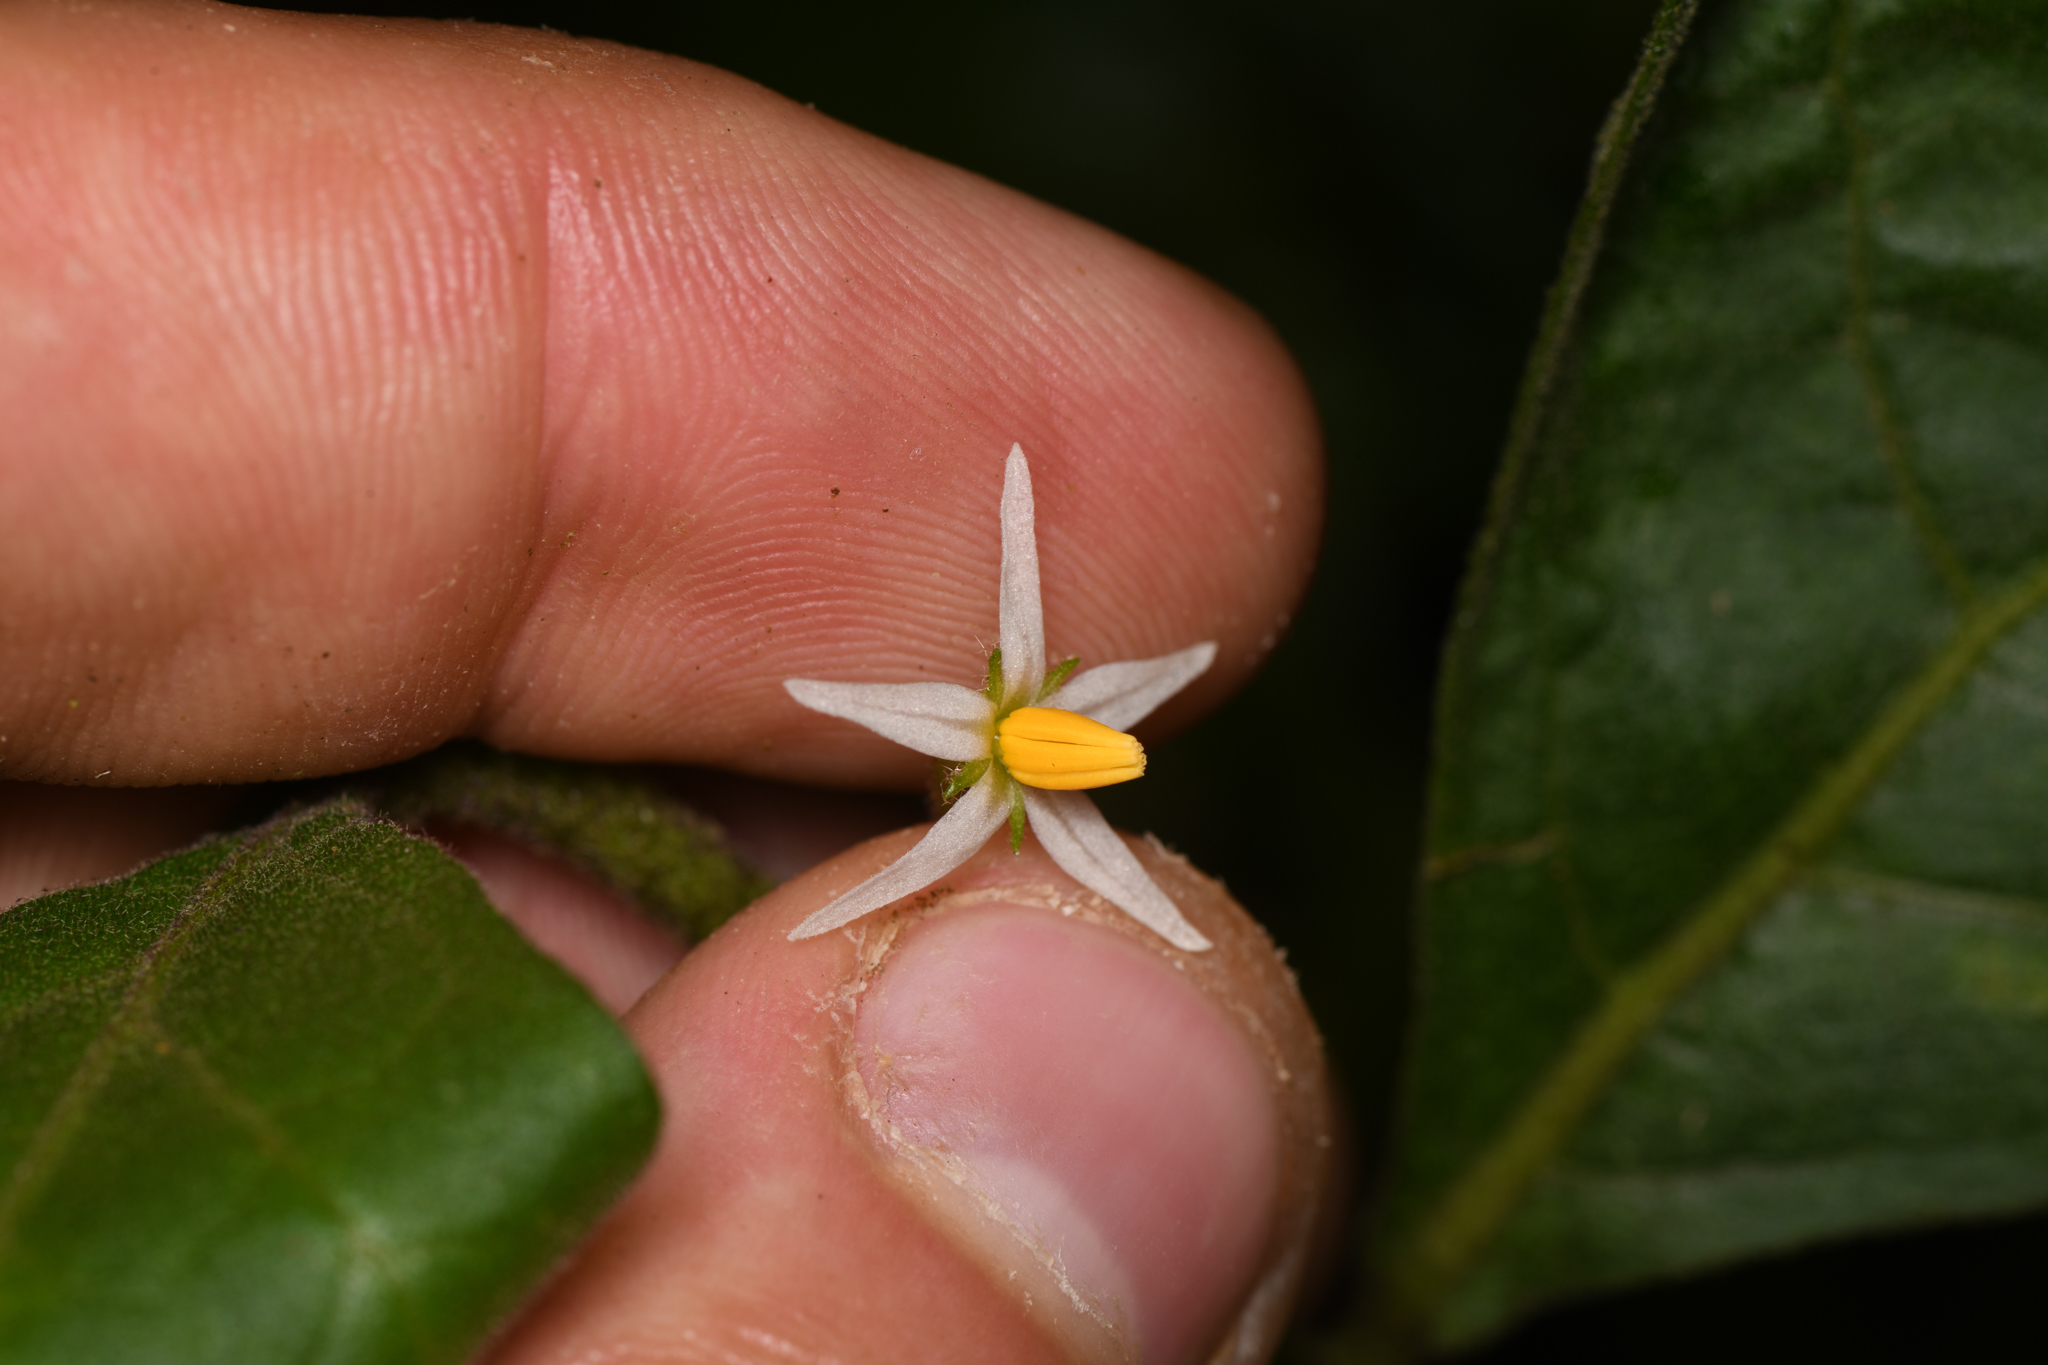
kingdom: Plantae
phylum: Tracheophyta
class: Magnoliopsida
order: Solanales
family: Solanaceae
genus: Solanum
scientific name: Solanum jamaicense
